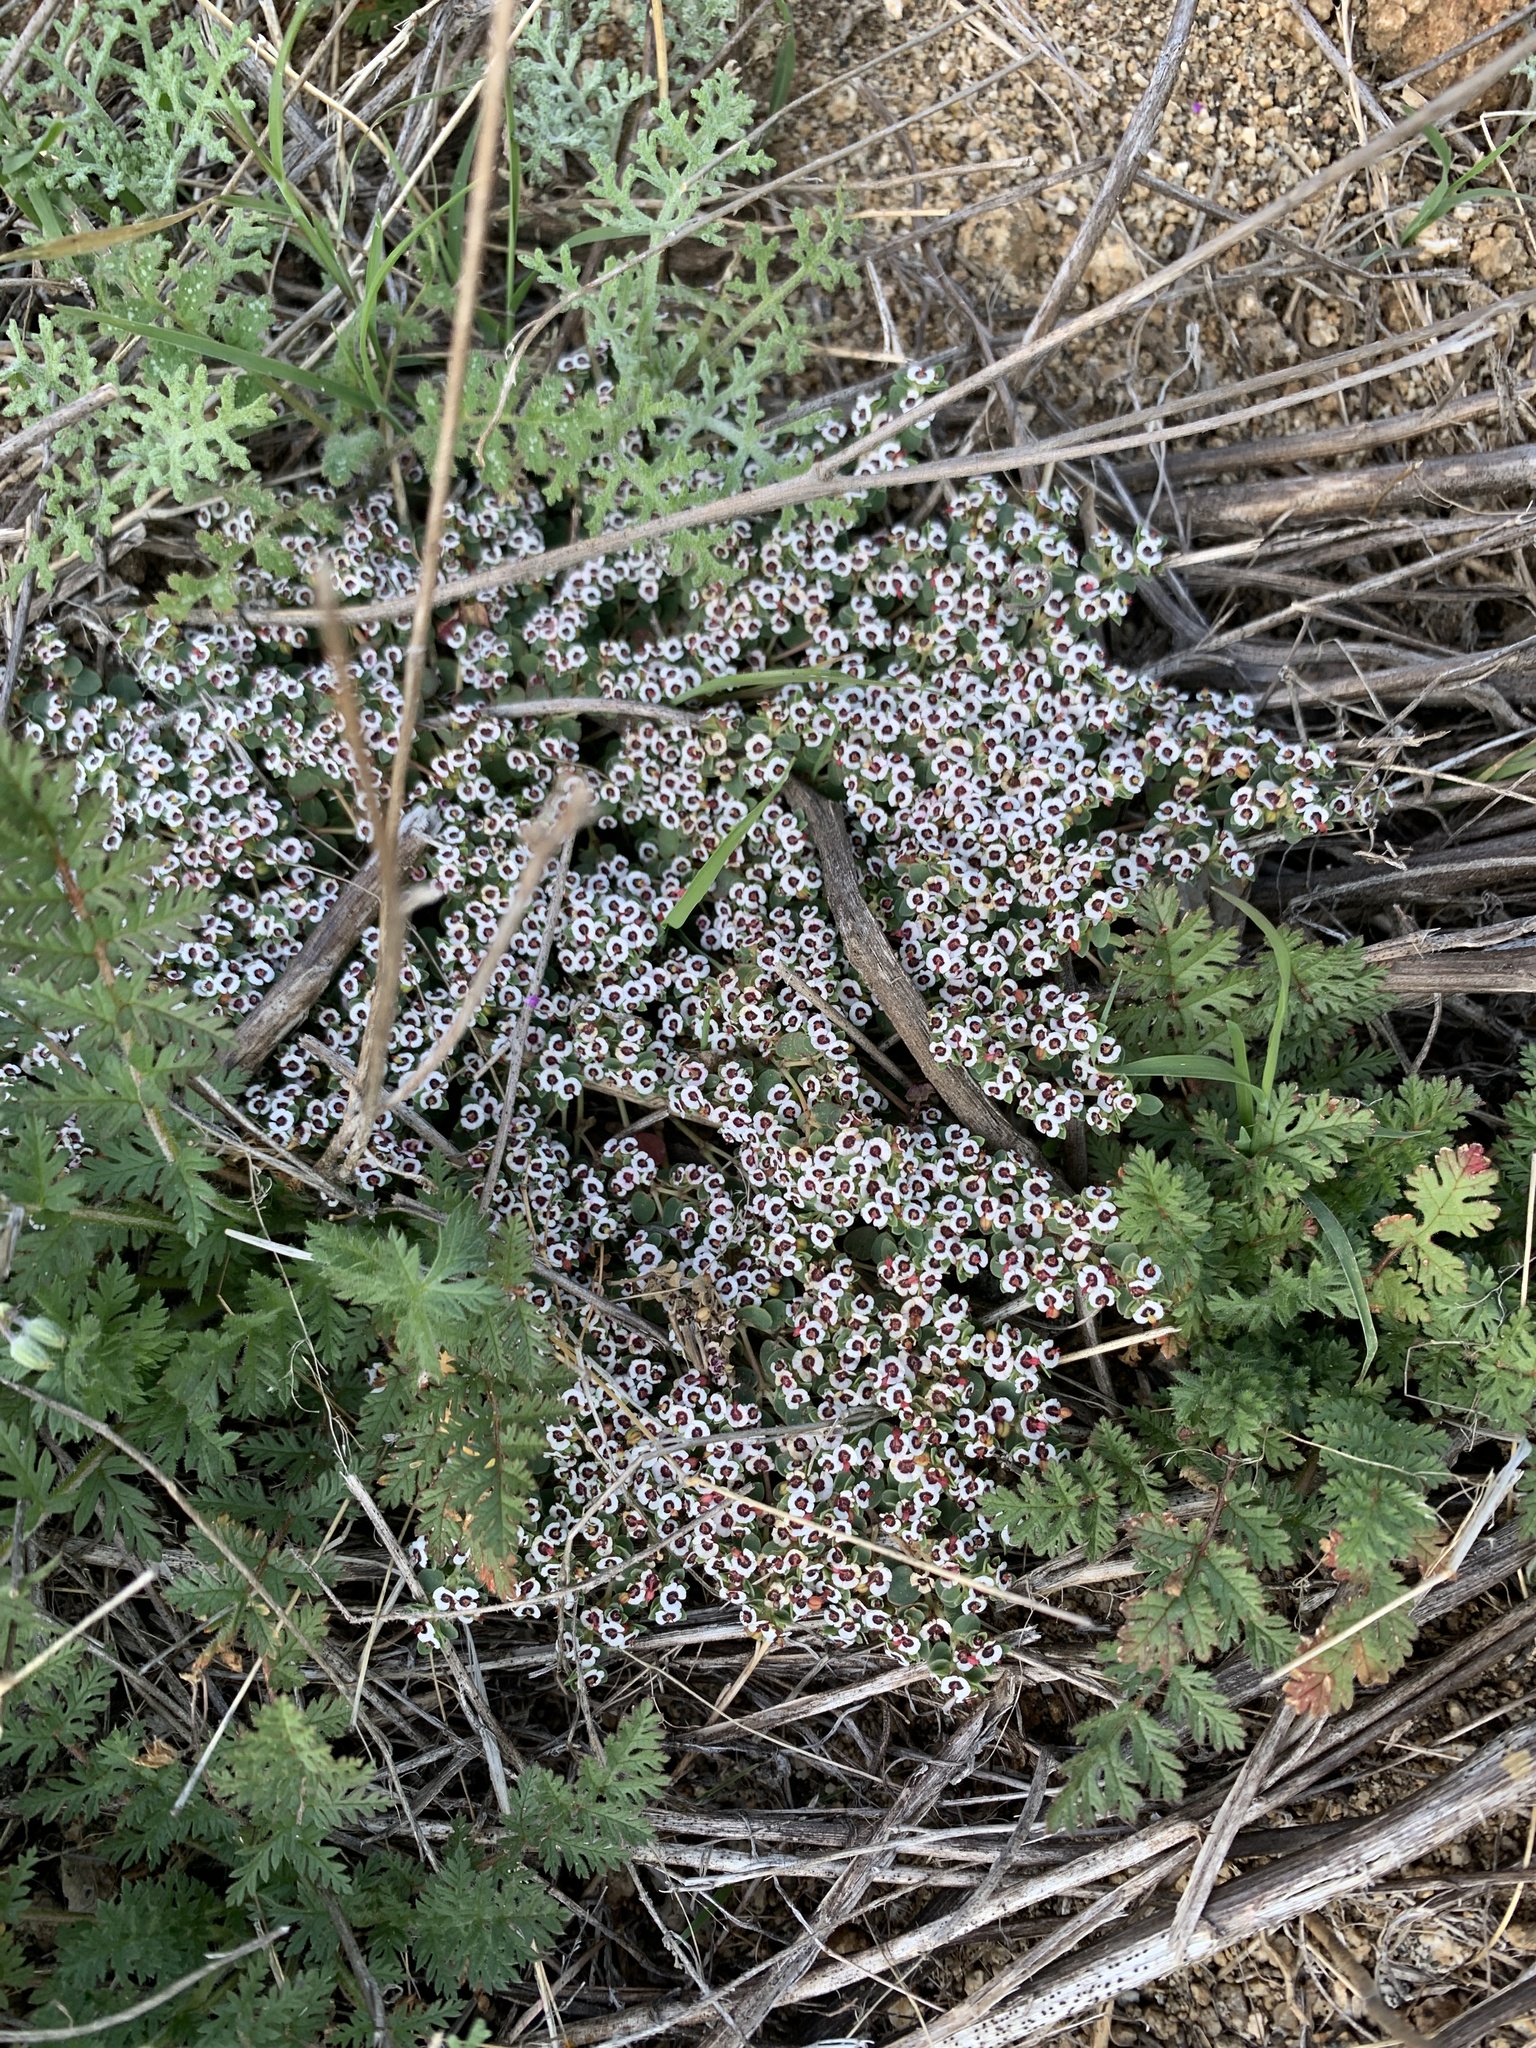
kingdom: Plantae
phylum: Tracheophyta
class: Magnoliopsida
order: Malpighiales
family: Euphorbiaceae
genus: Euphorbia
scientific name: Euphorbia polycarpa
